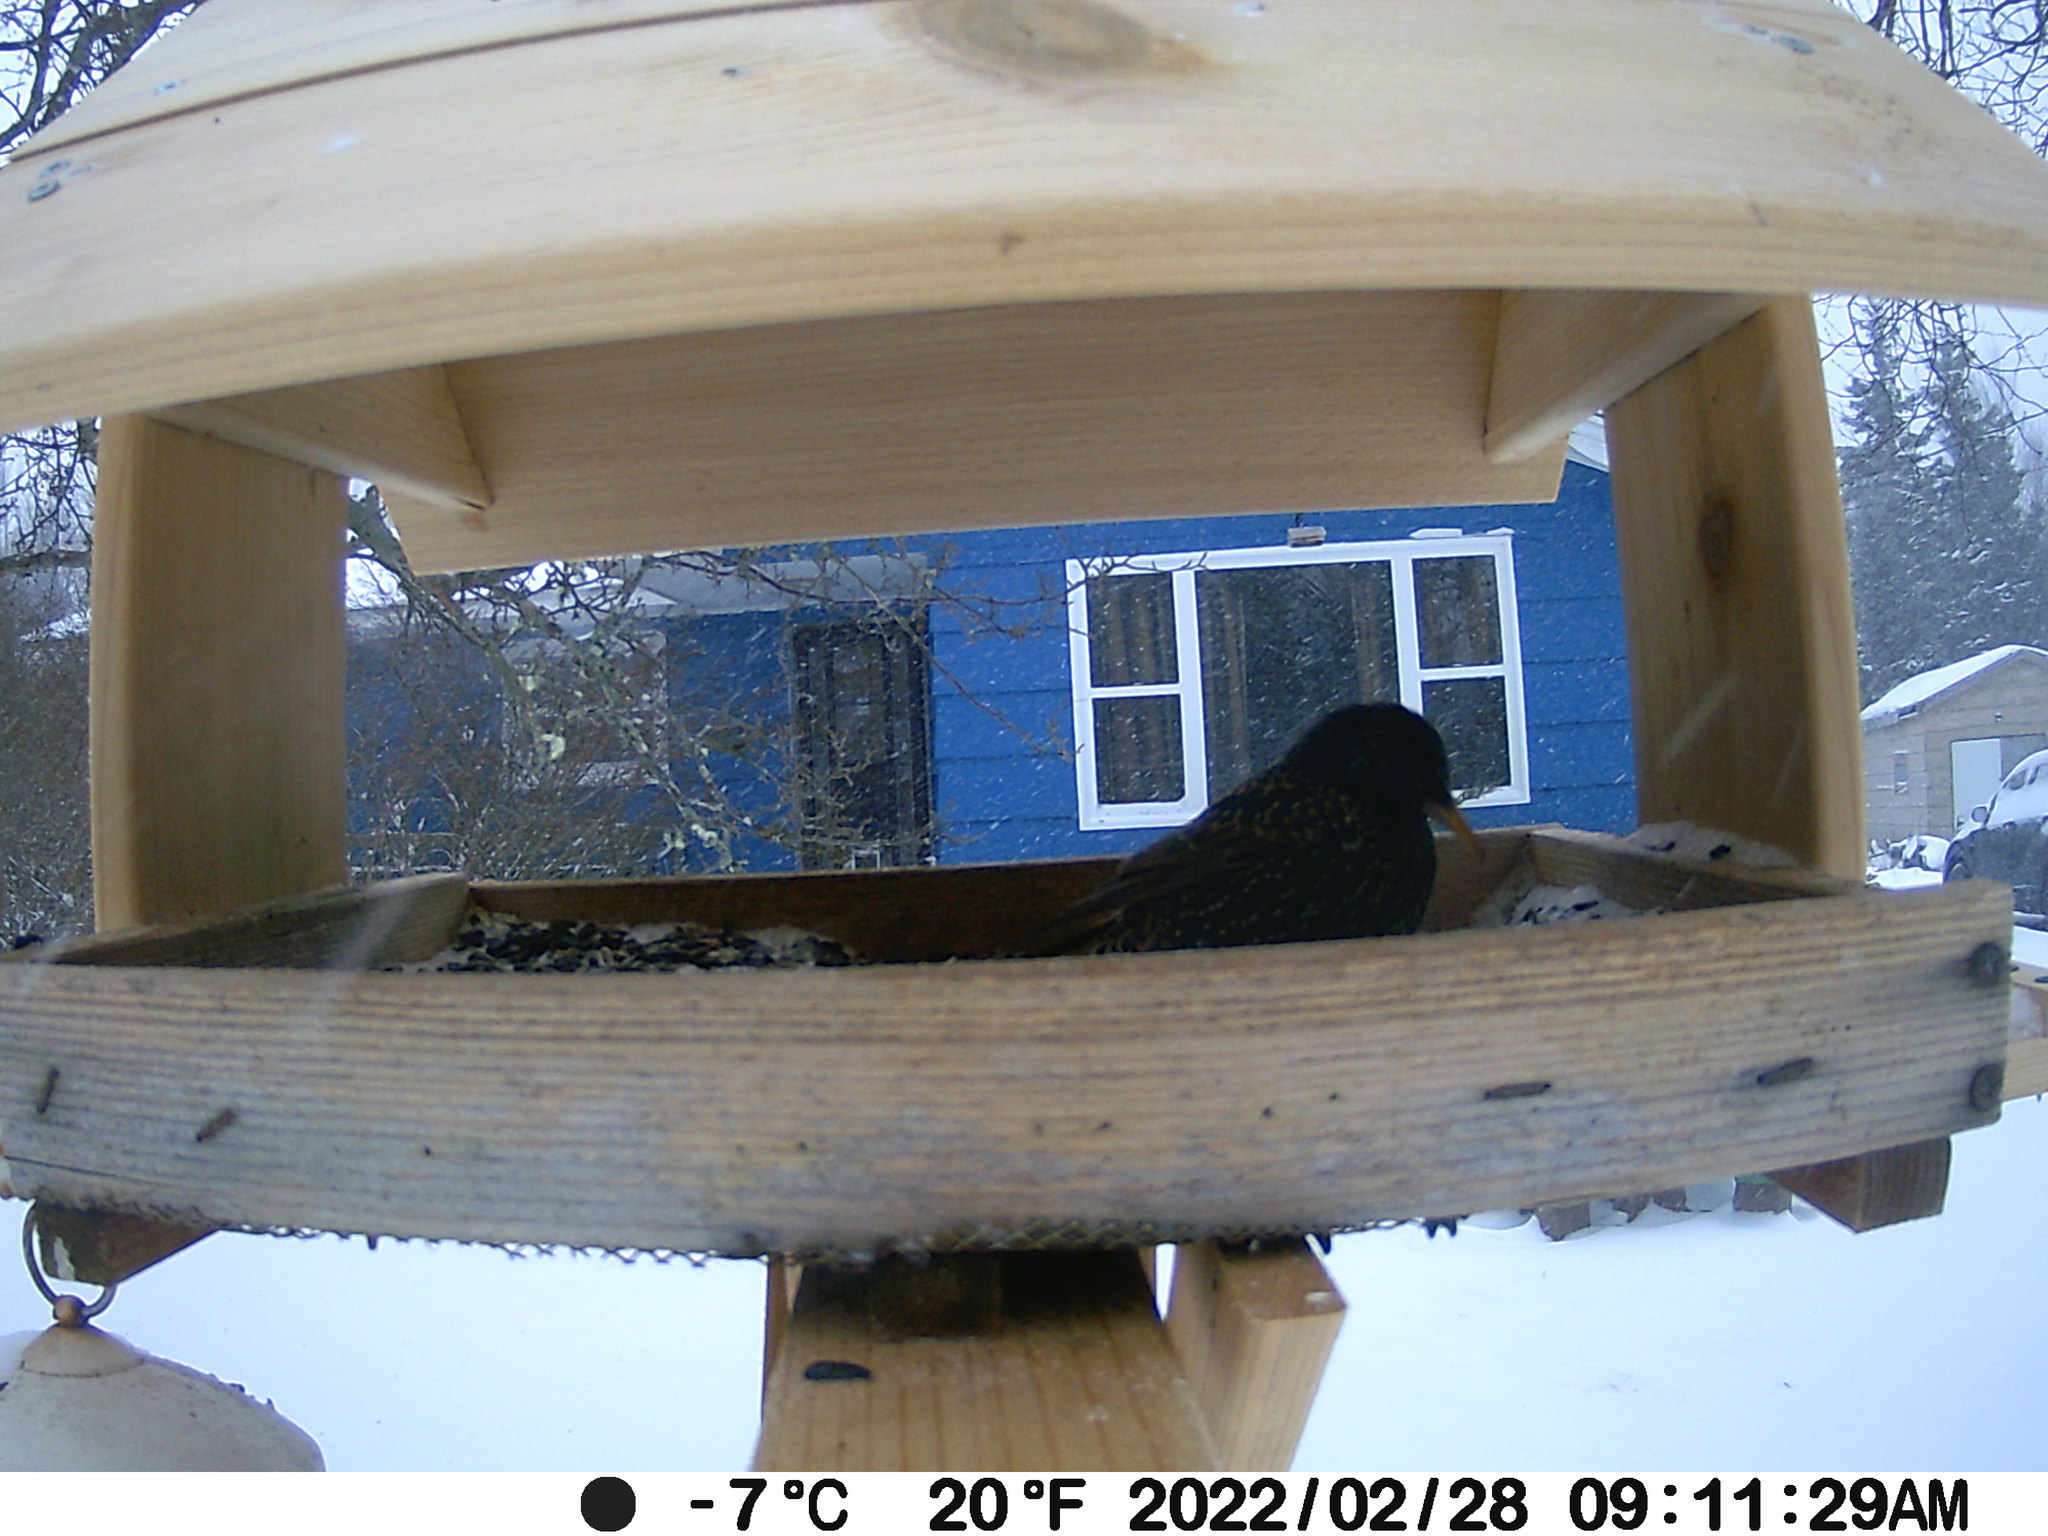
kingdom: Animalia
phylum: Chordata
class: Aves
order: Passeriformes
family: Sturnidae
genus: Sturnus
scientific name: Sturnus vulgaris
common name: Common starling
